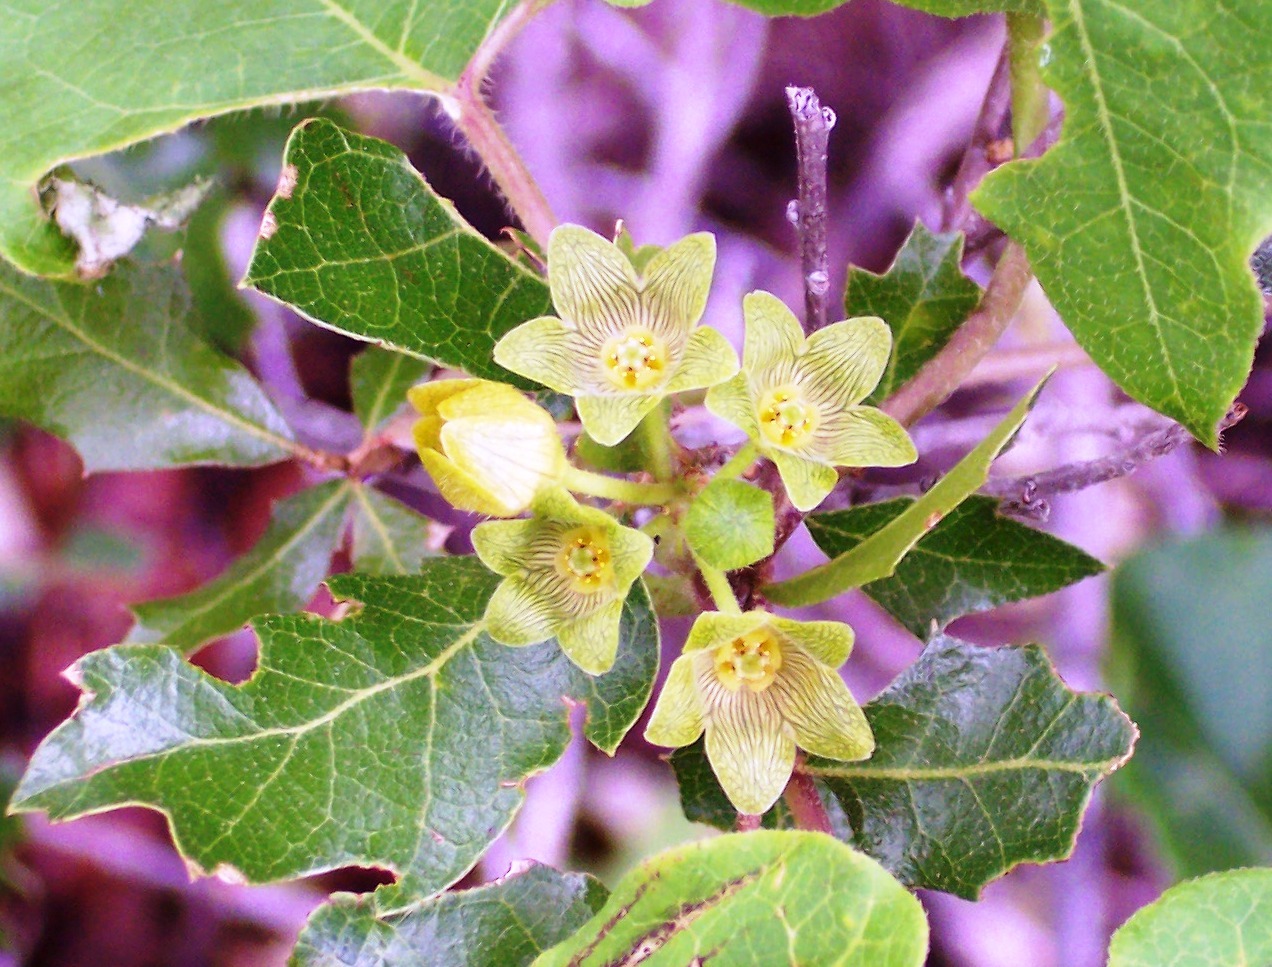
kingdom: Plantae
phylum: Tracheophyta
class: Magnoliopsida
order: Gentianales
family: Apocynaceae
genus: Matelea
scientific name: Matelea edwardsensis
